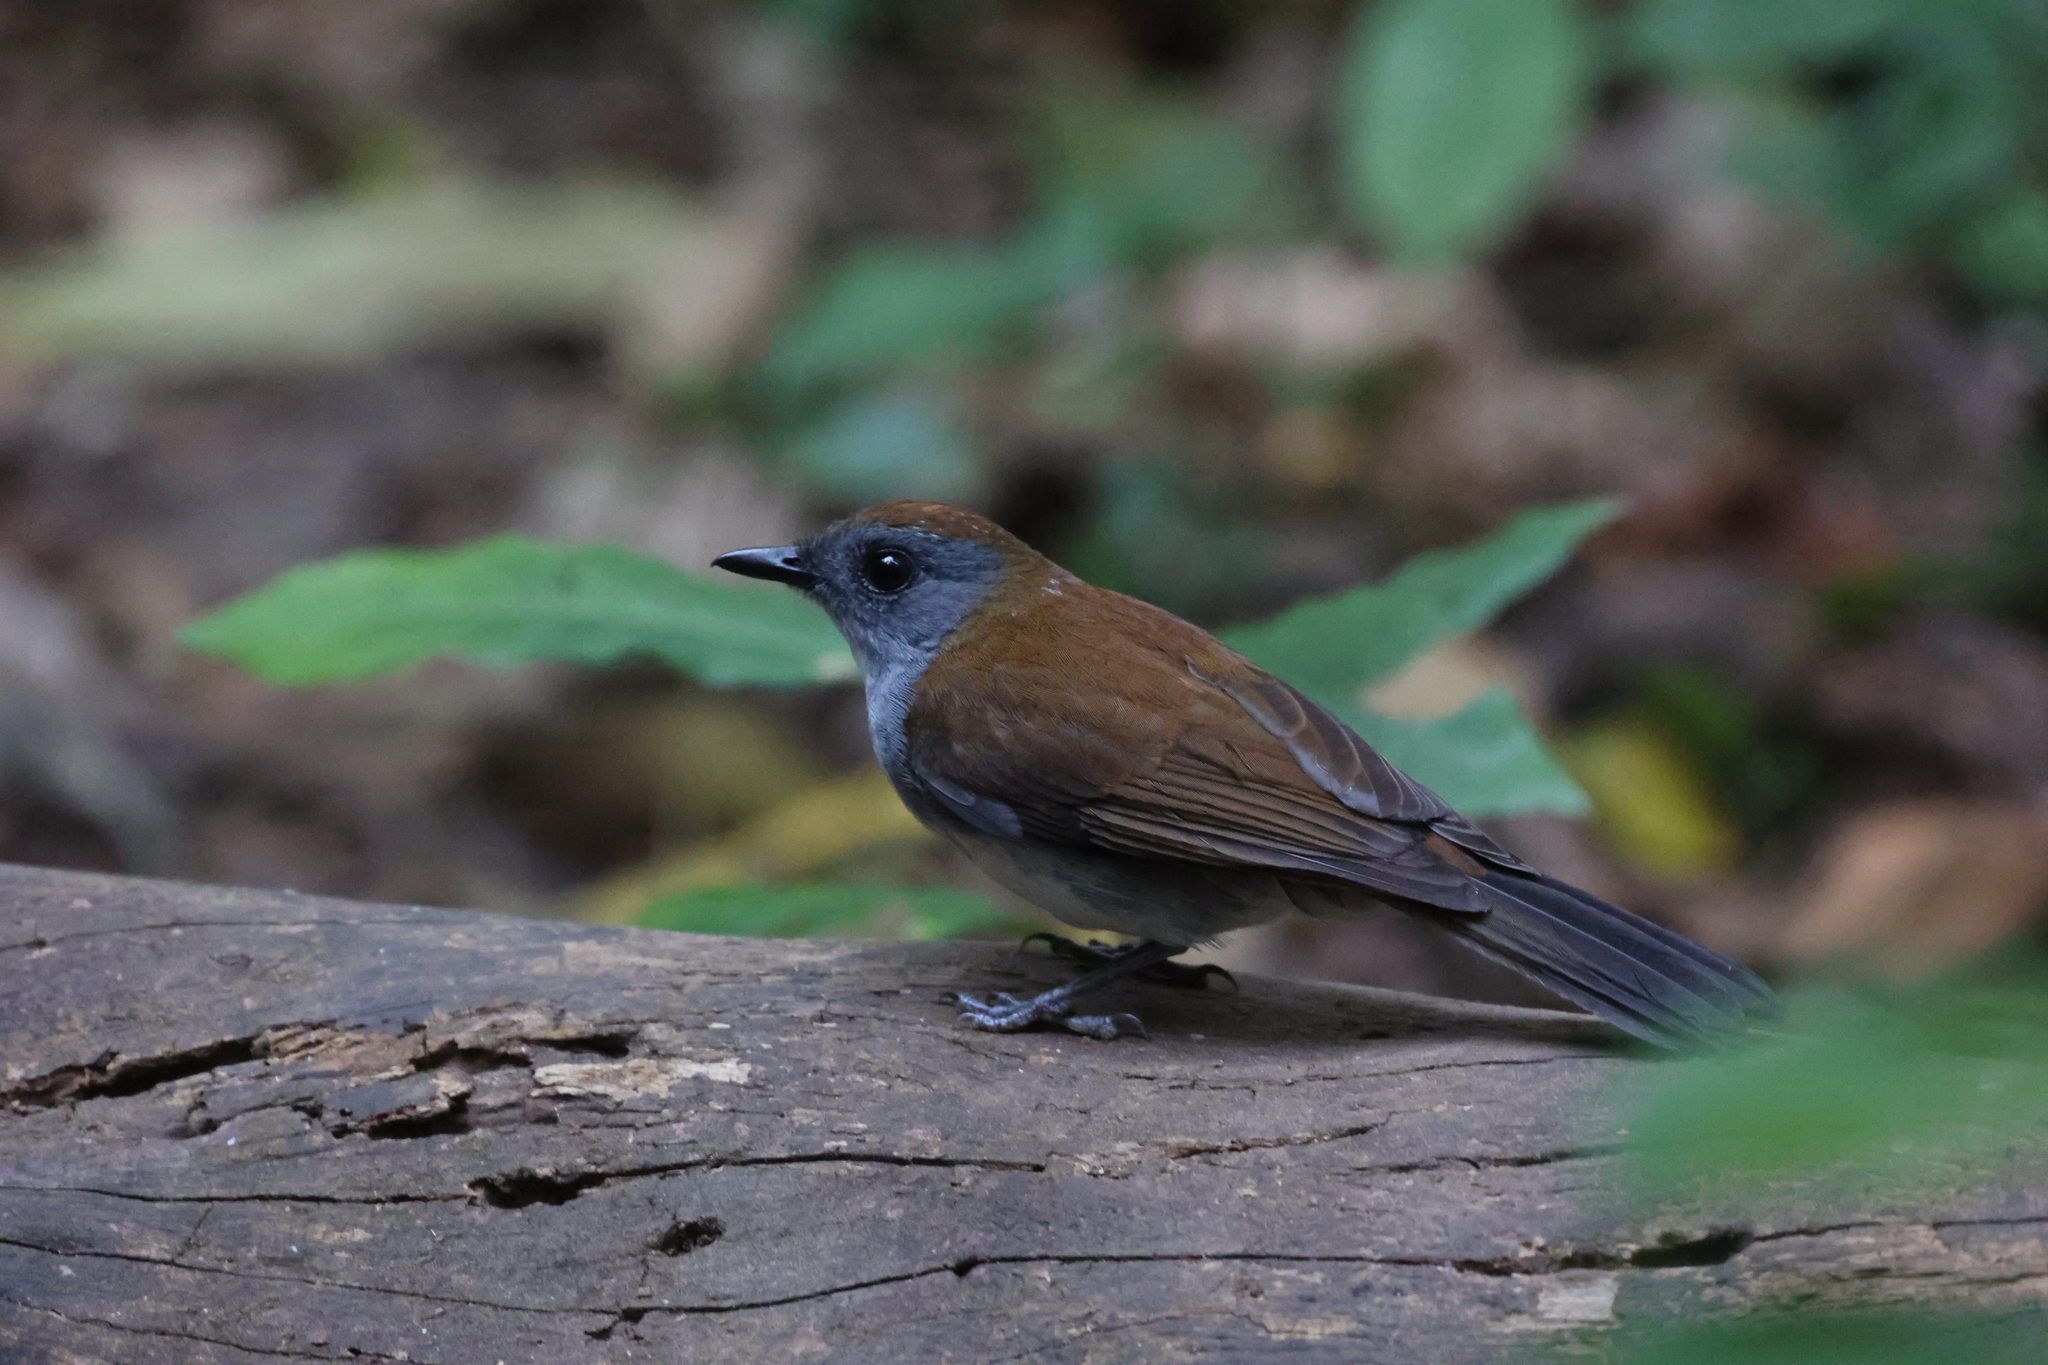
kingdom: Animalia
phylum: Chordata
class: Aves
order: Passeriformes
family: Turdidae
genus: Alethe
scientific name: Alethe castanea
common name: Fire-crested alethe
